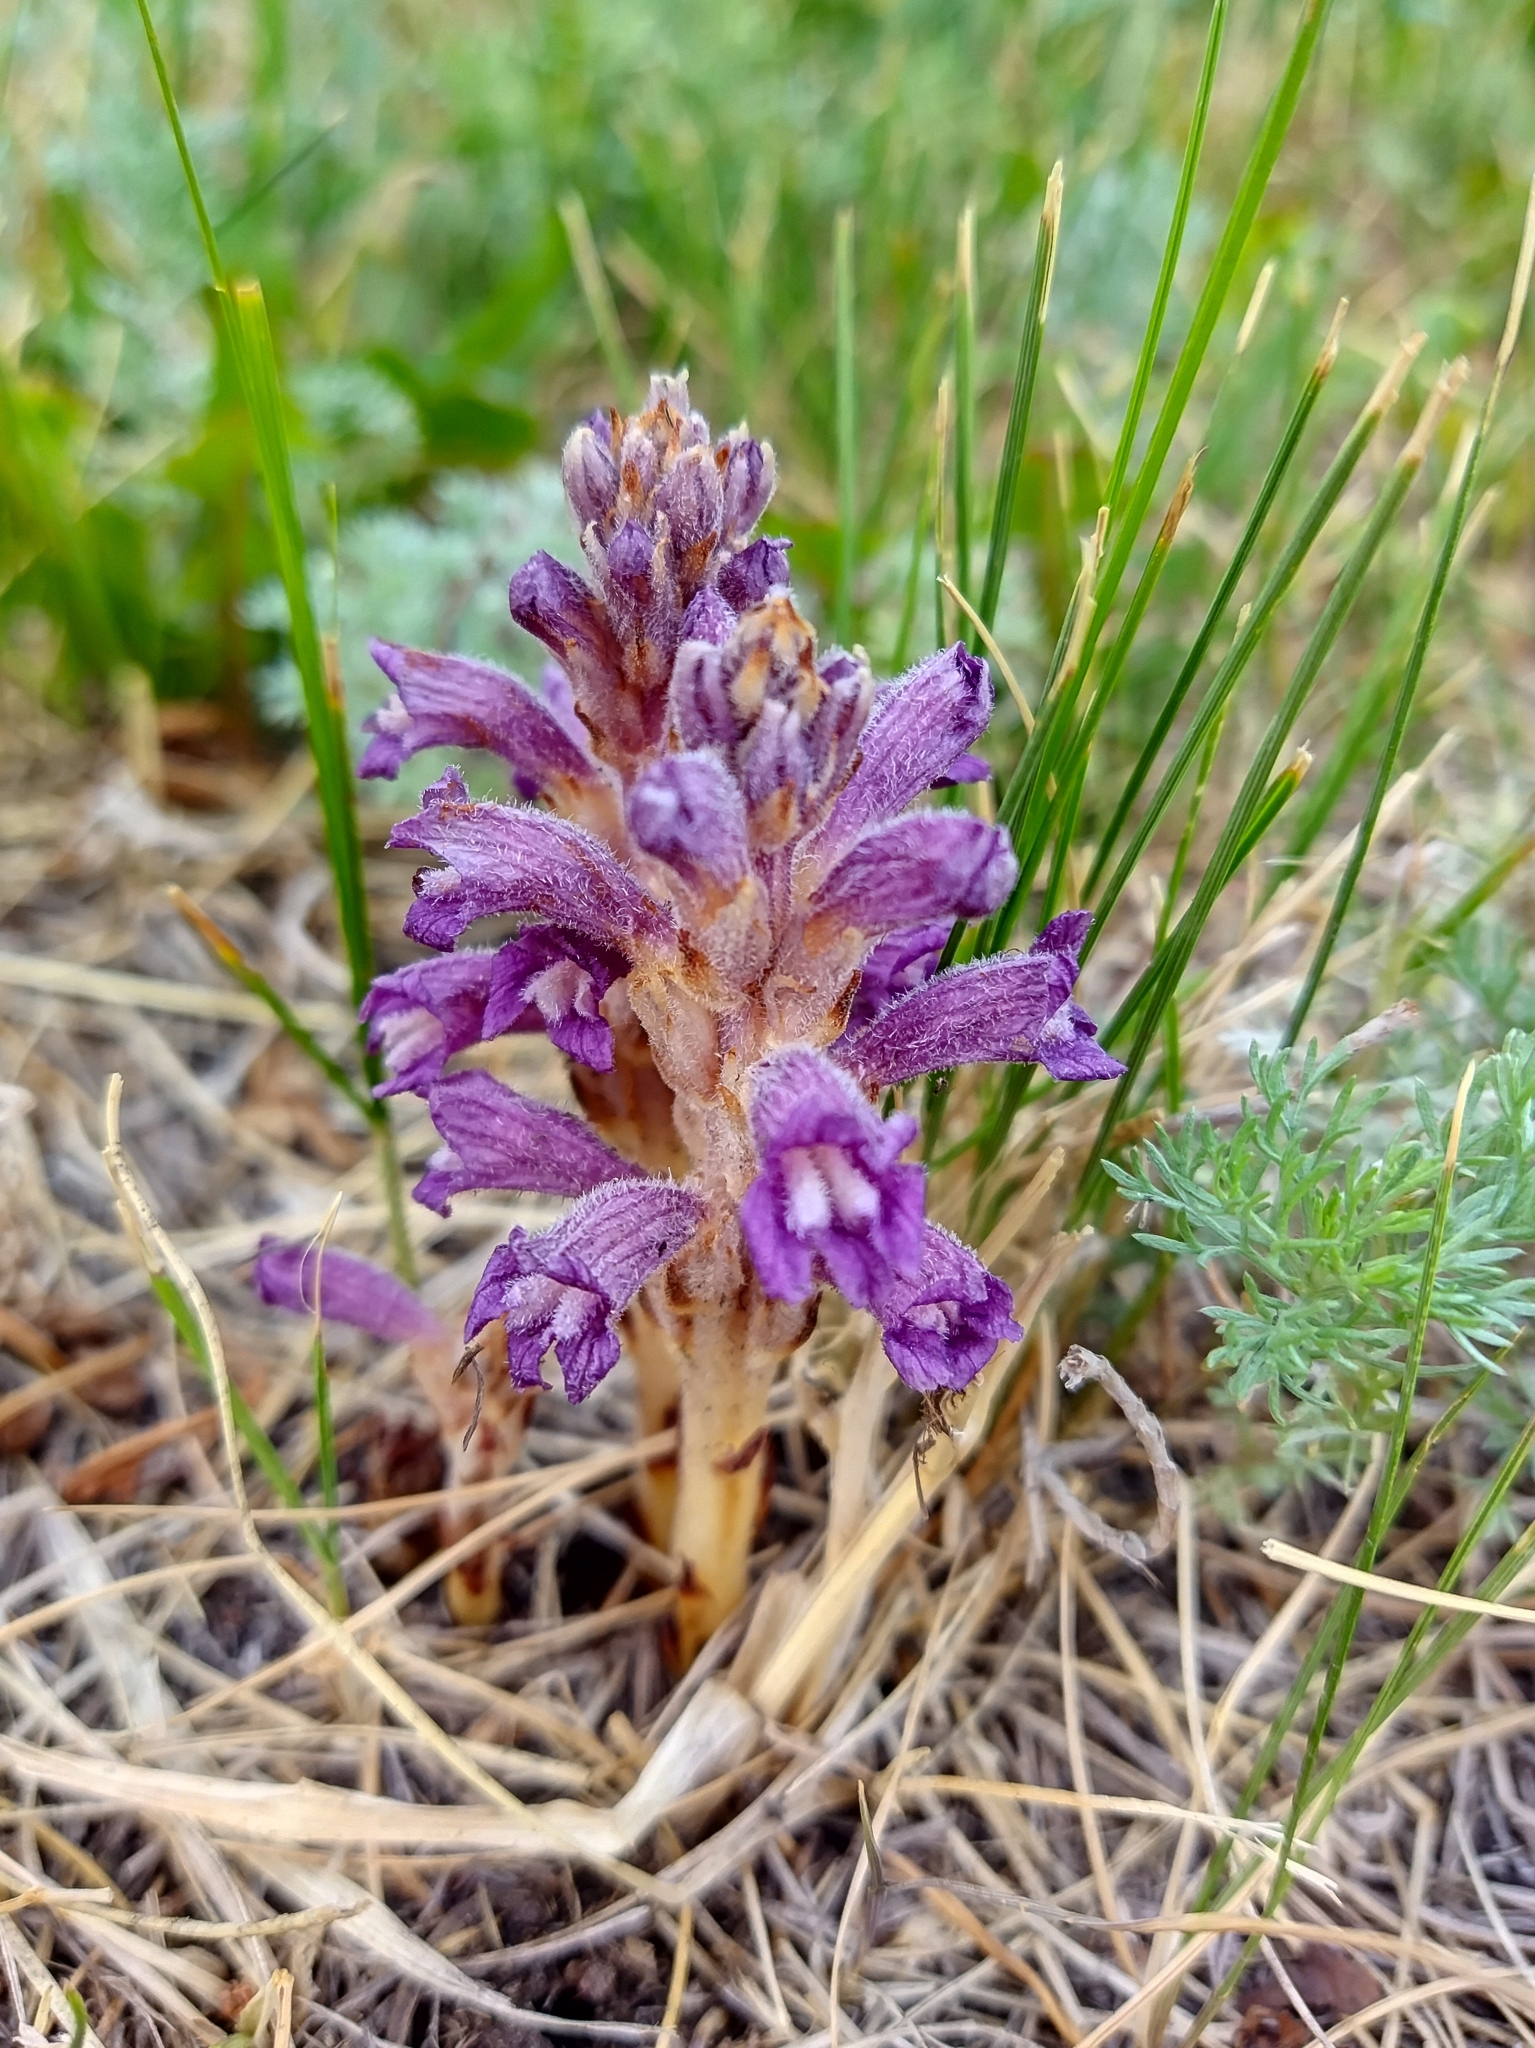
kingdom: Plantae
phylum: Tracheophyta
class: Magnoliopsida
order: Lamiales
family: Orobanchaceae
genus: Phelipanche
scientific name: Phelipanche caesia
